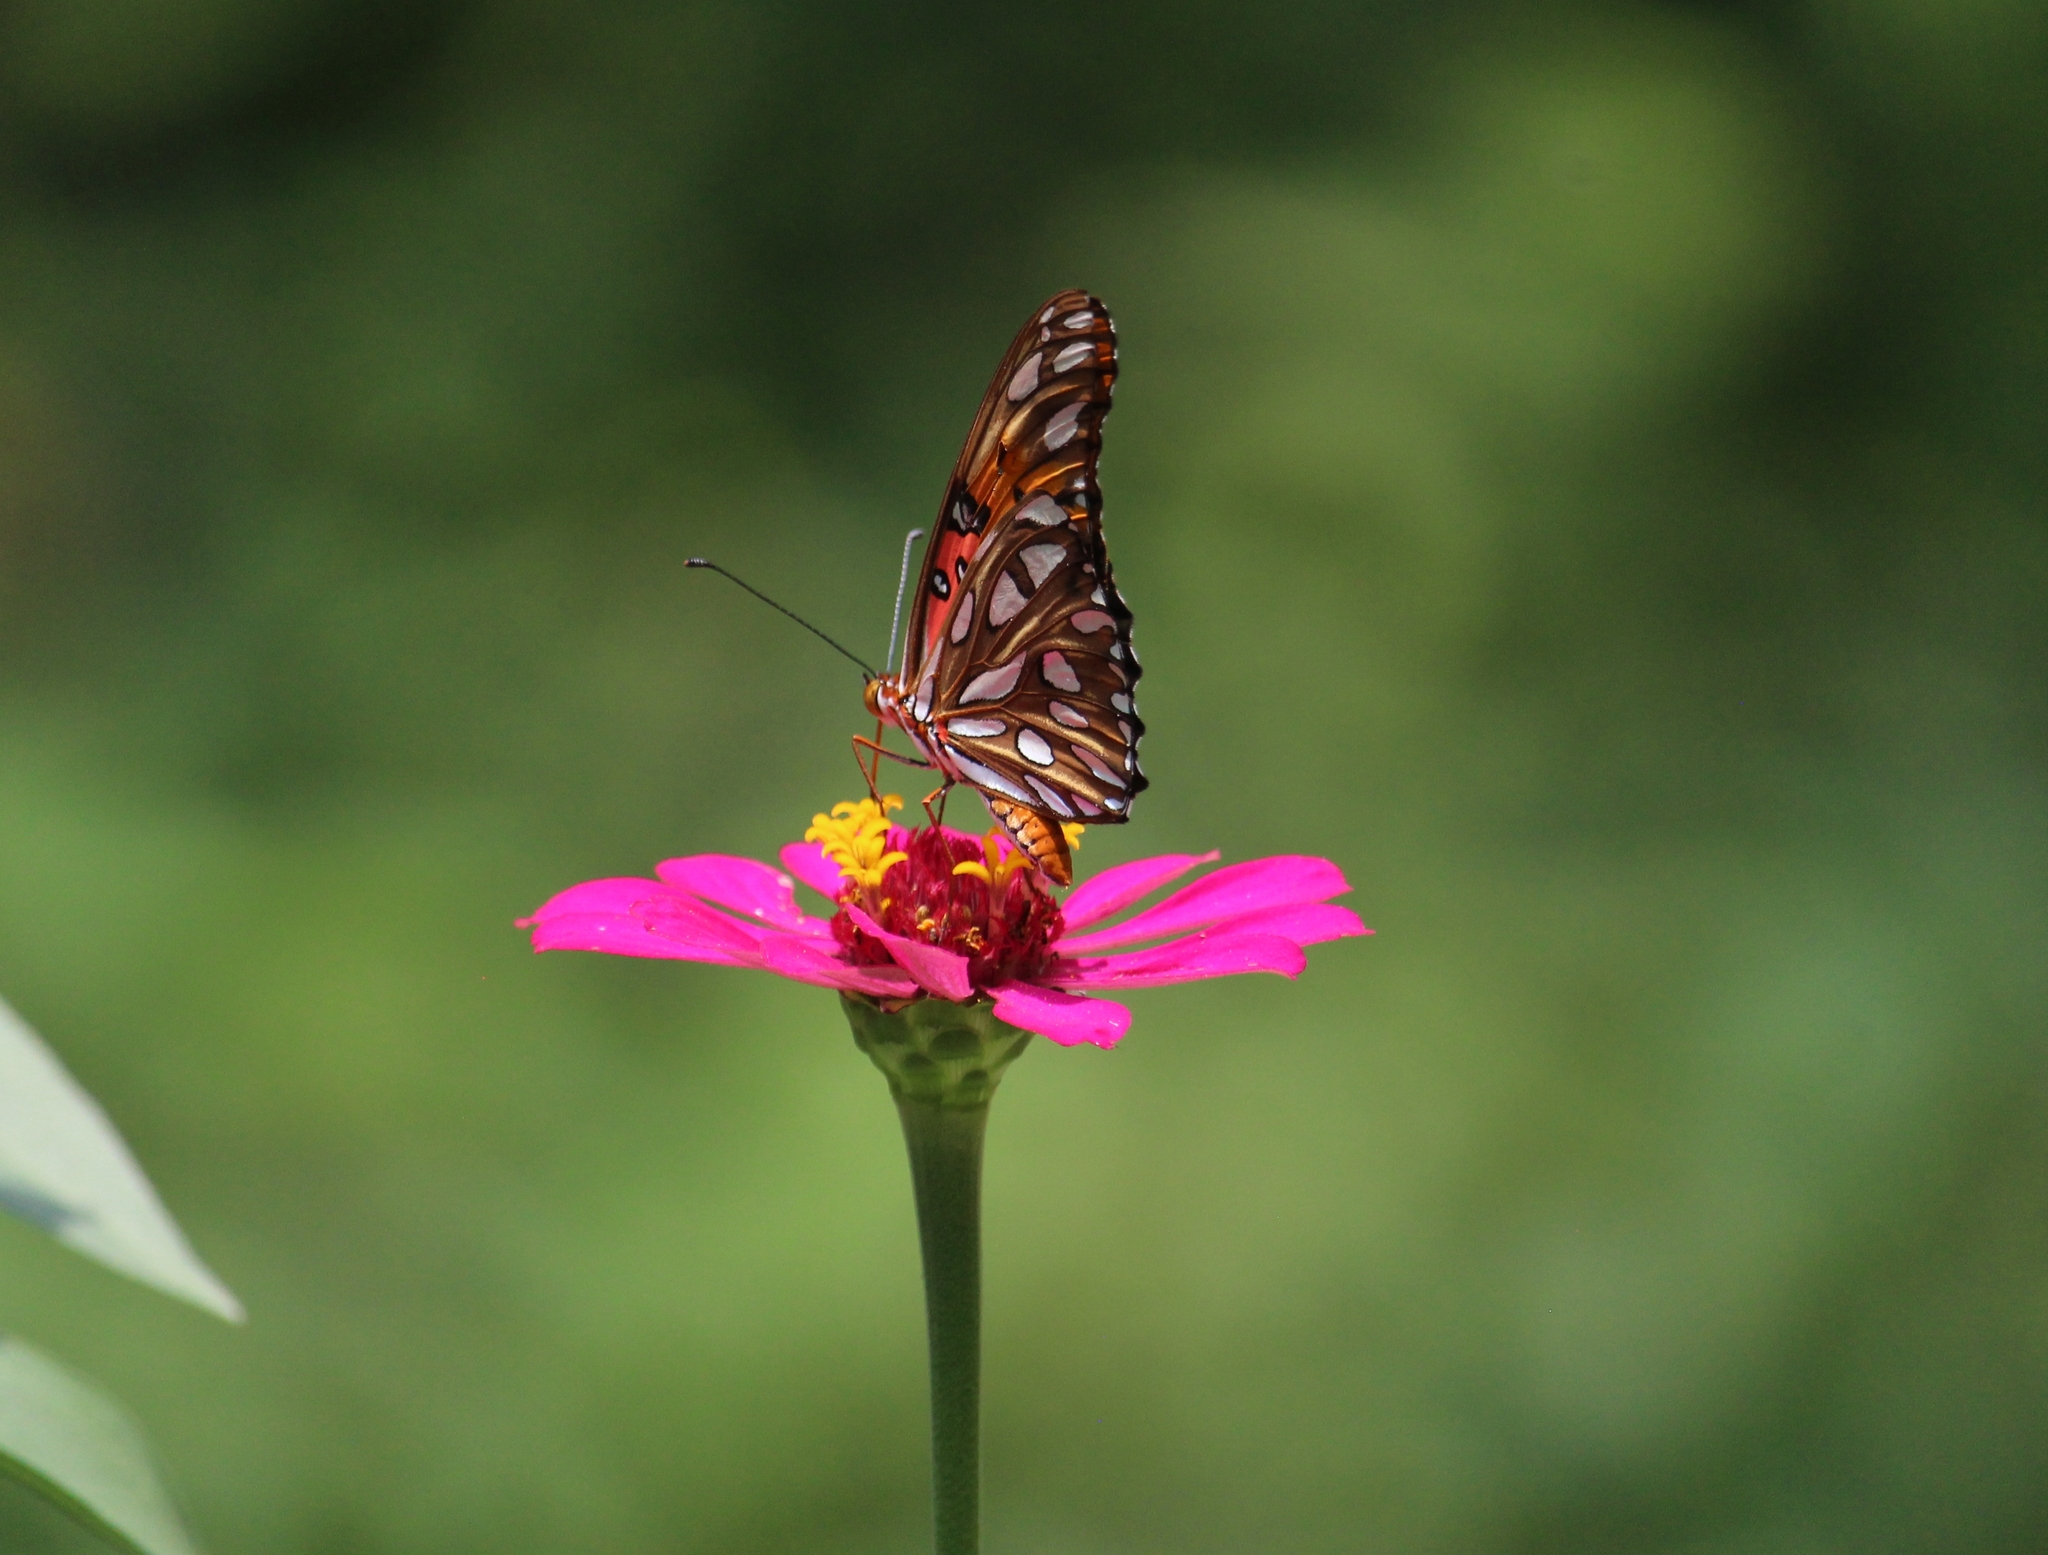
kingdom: Animalia
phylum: Arthropoda
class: Insecta
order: Lepidoptera
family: Nymphalidae
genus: Dione
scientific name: Dione vanillae
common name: Gulf fritillary
